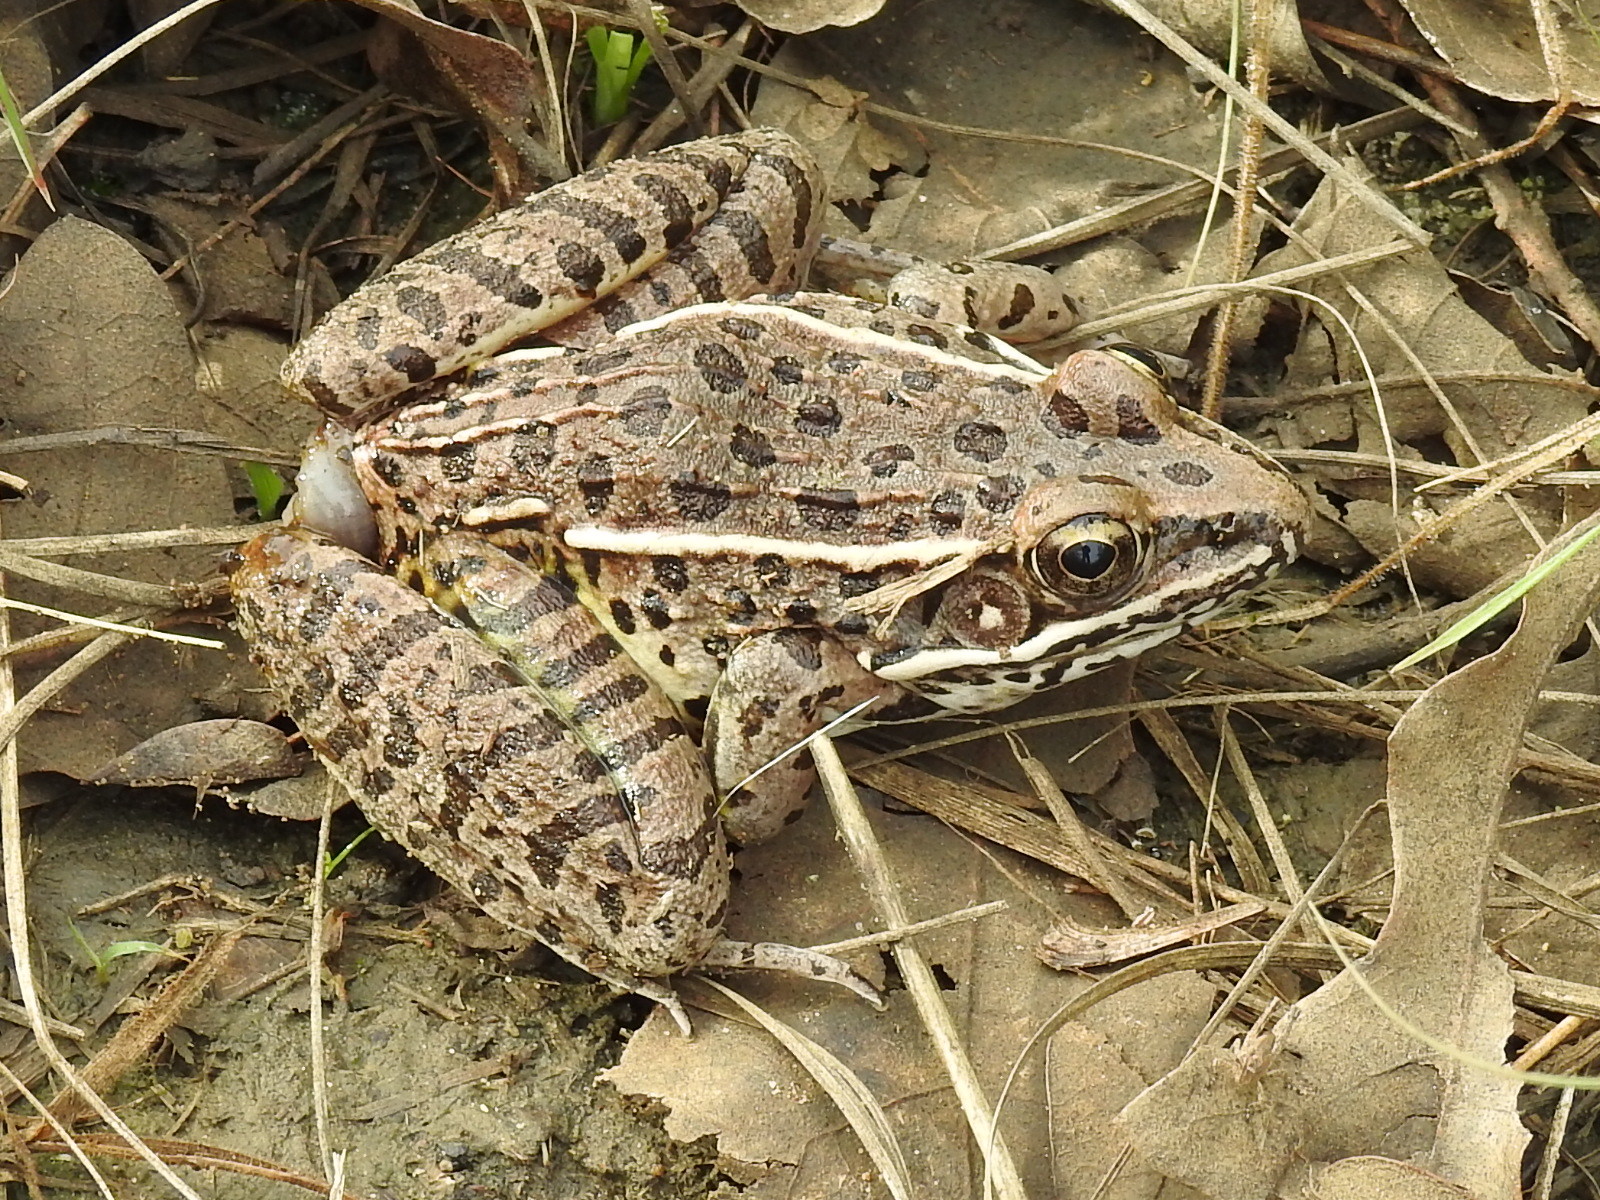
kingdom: Animalia
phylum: Chordata
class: Amphibia
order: Anura
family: Ranidae
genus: Lithobates
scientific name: Lithobates blairi
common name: Plains leopard frog
